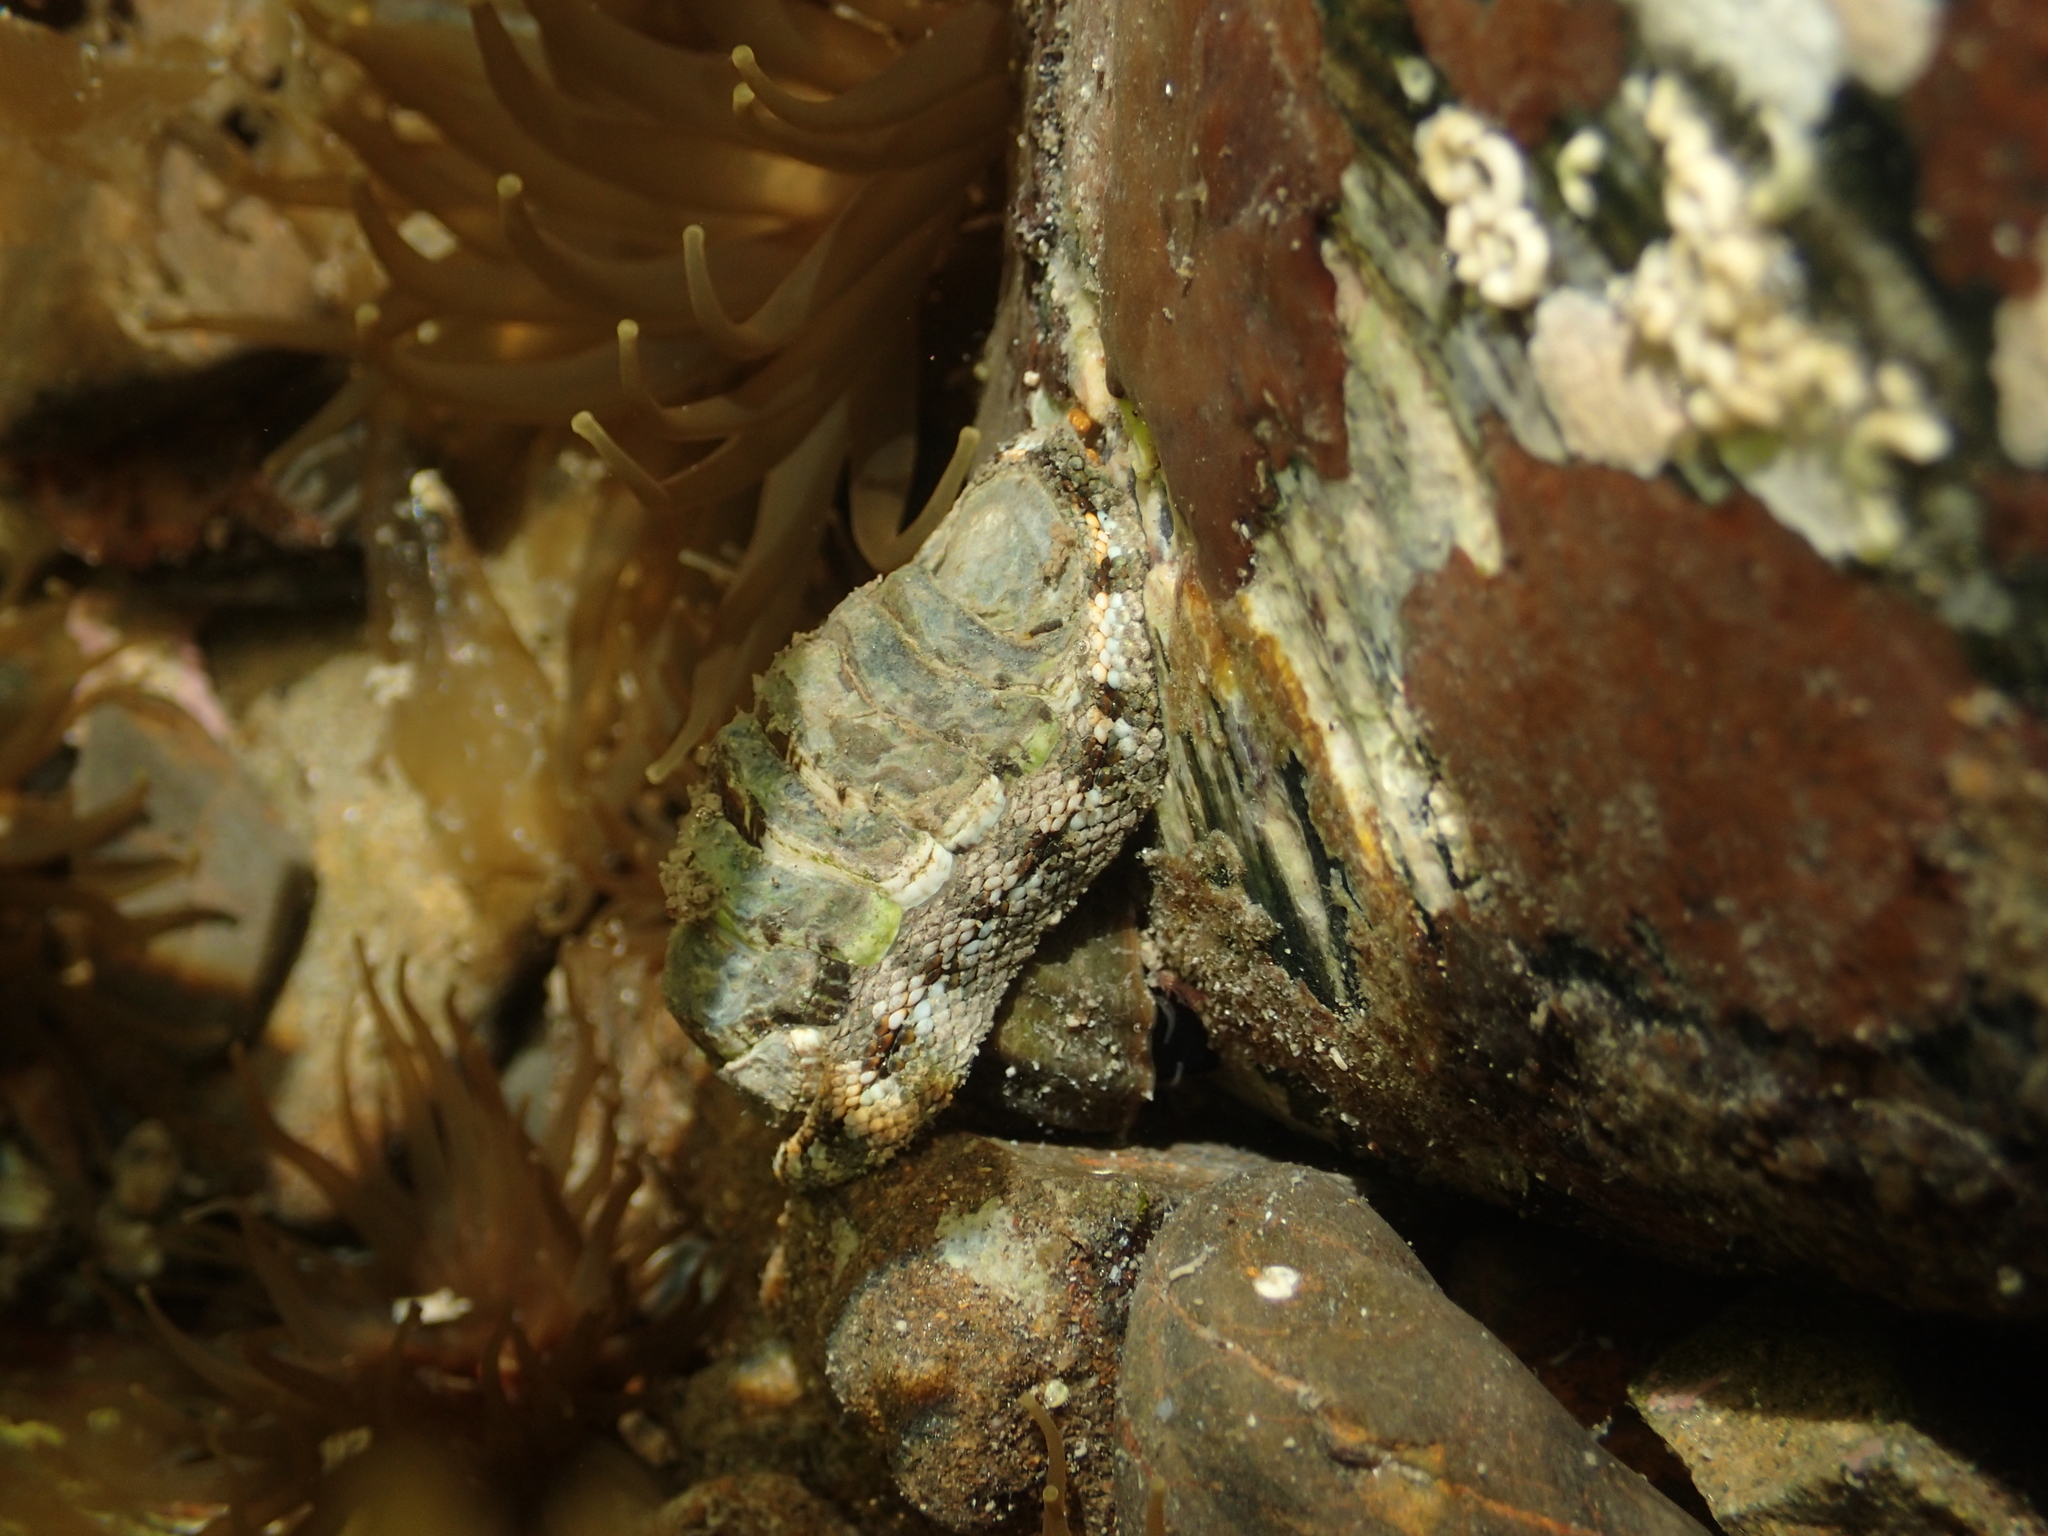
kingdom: Animalia
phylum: Mollusca
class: Polyplacophora
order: Chitonida
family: Chitonidae
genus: Sypharochiton
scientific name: Sypharochiton pelliserpentis
